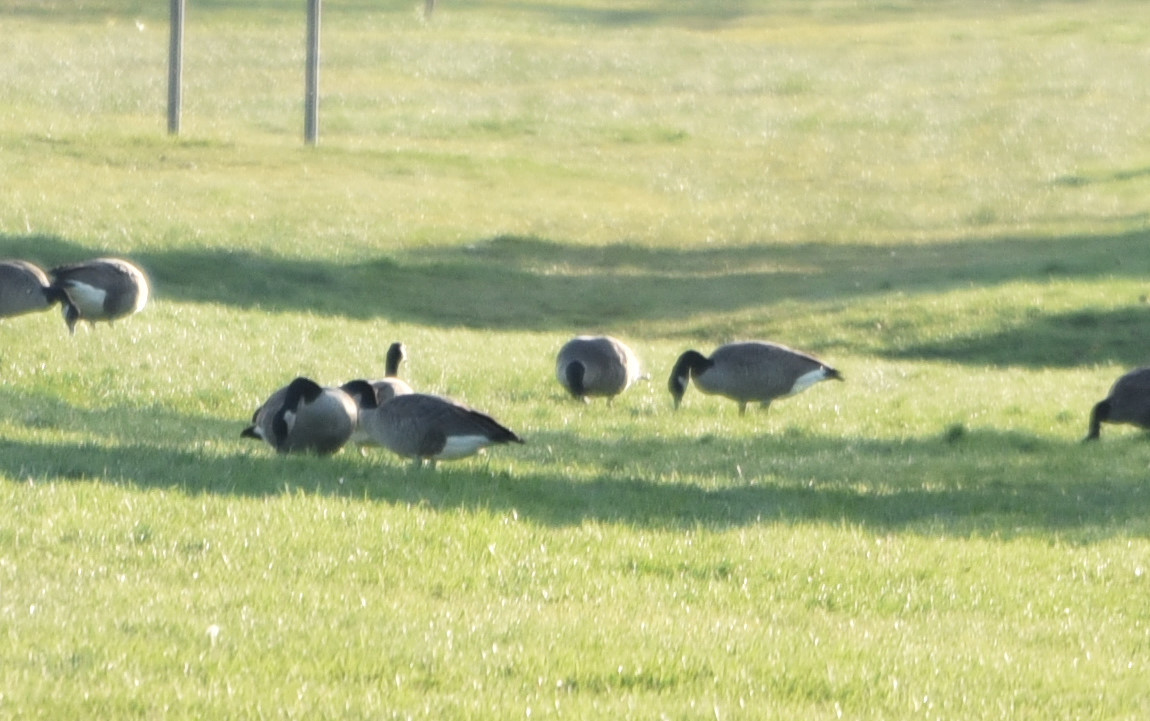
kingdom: Animalia
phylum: Chordata
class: Aves
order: Anseriformes
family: Anatidae
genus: Branta
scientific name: Branta canadensis
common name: Canada goose
